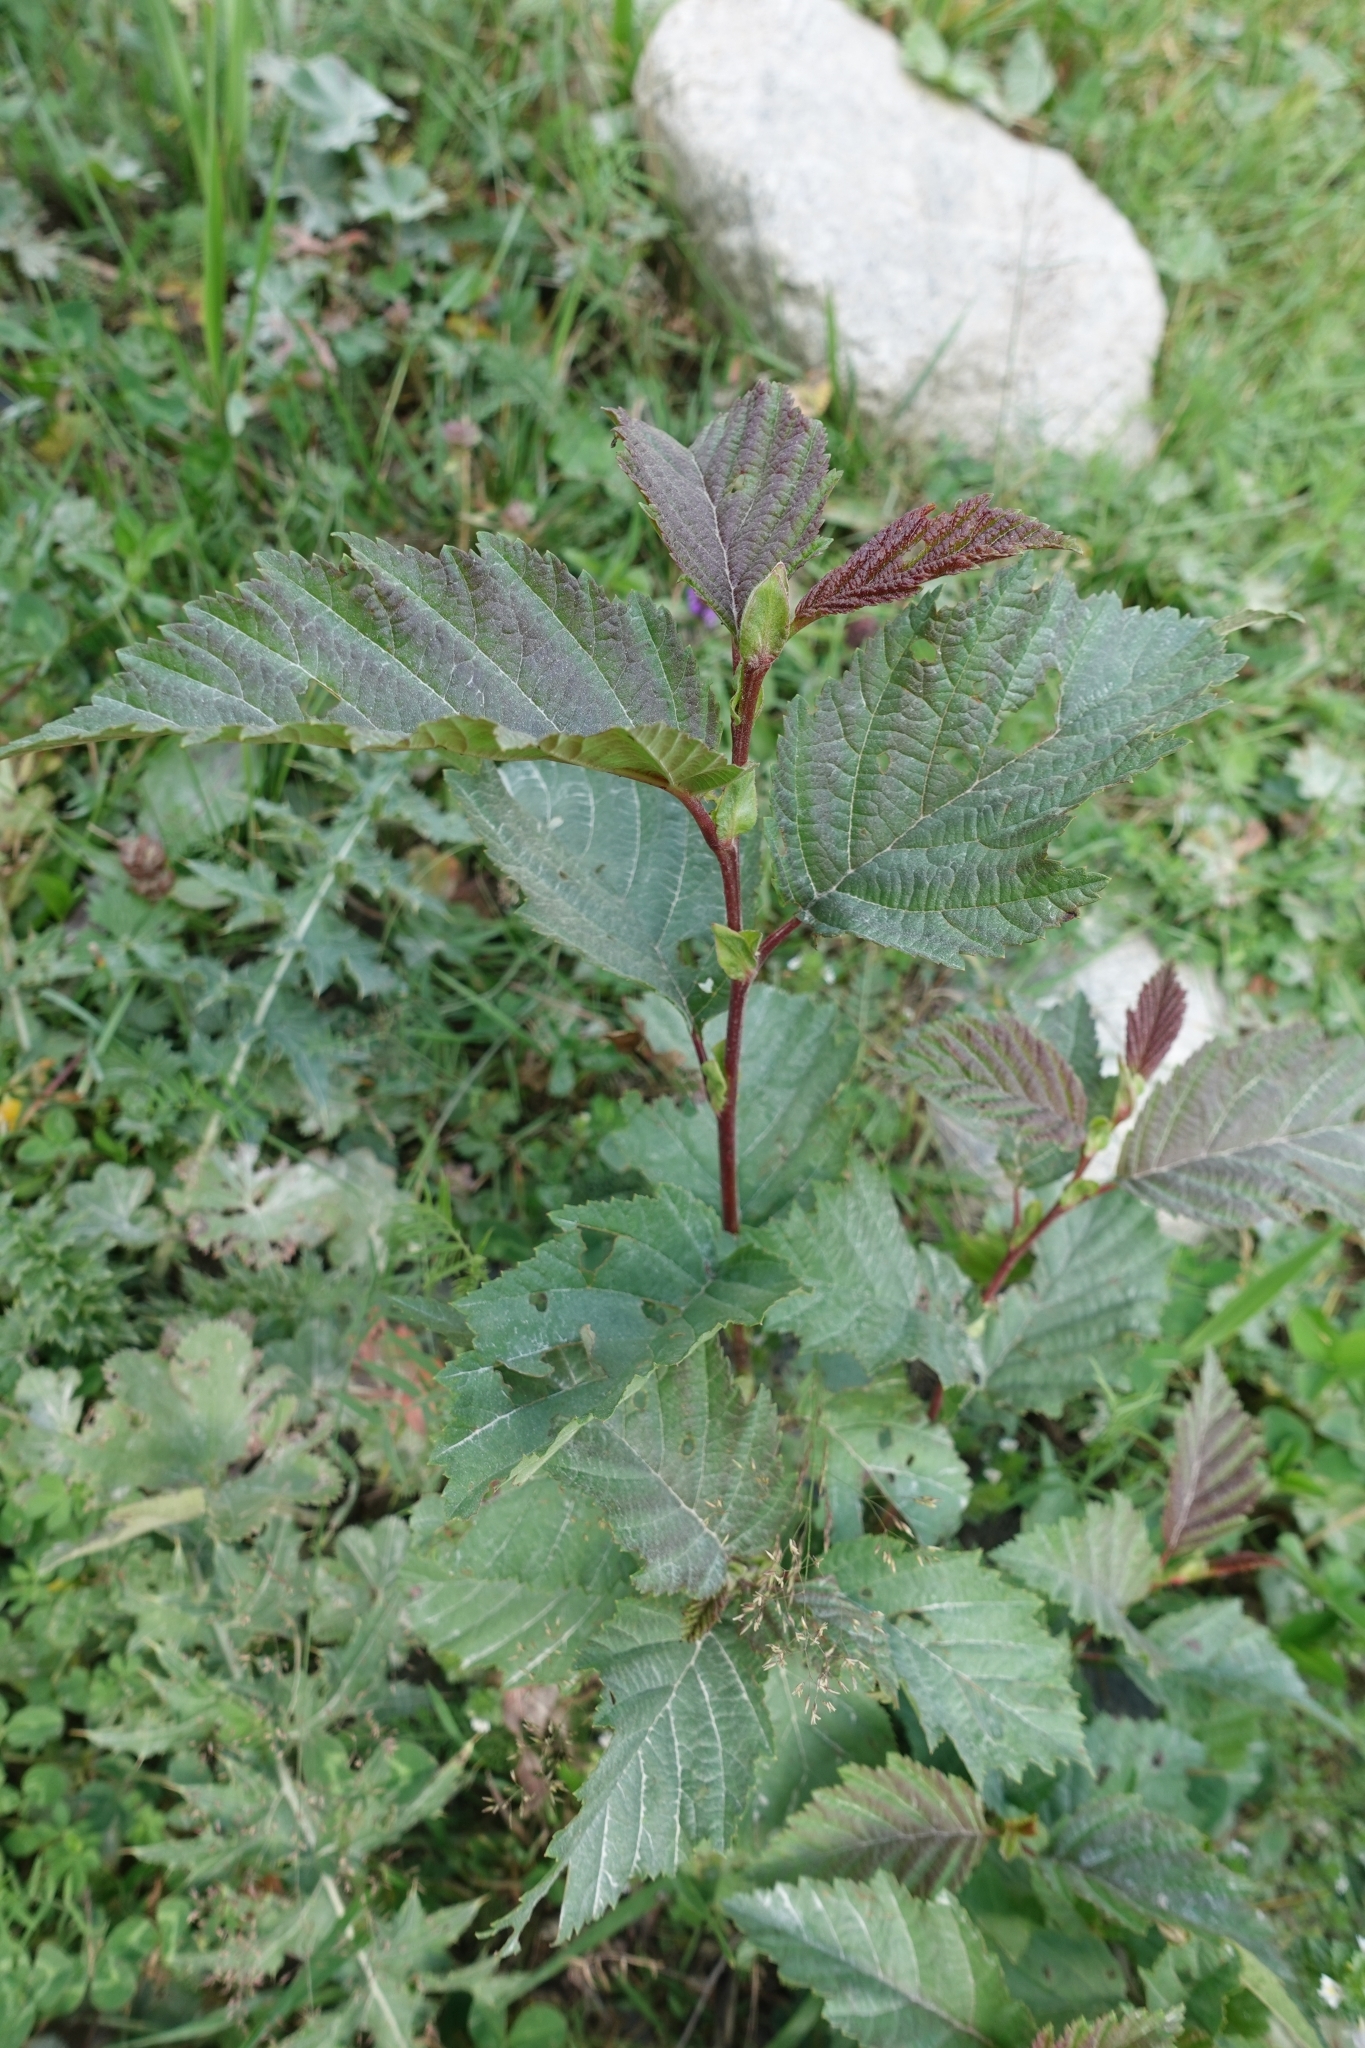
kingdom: Plantae
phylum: Tracheophyta
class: Magnoliopsida
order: Fagales
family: Betulaceae
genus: Alnus
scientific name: Alnus incana
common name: Grey alder
